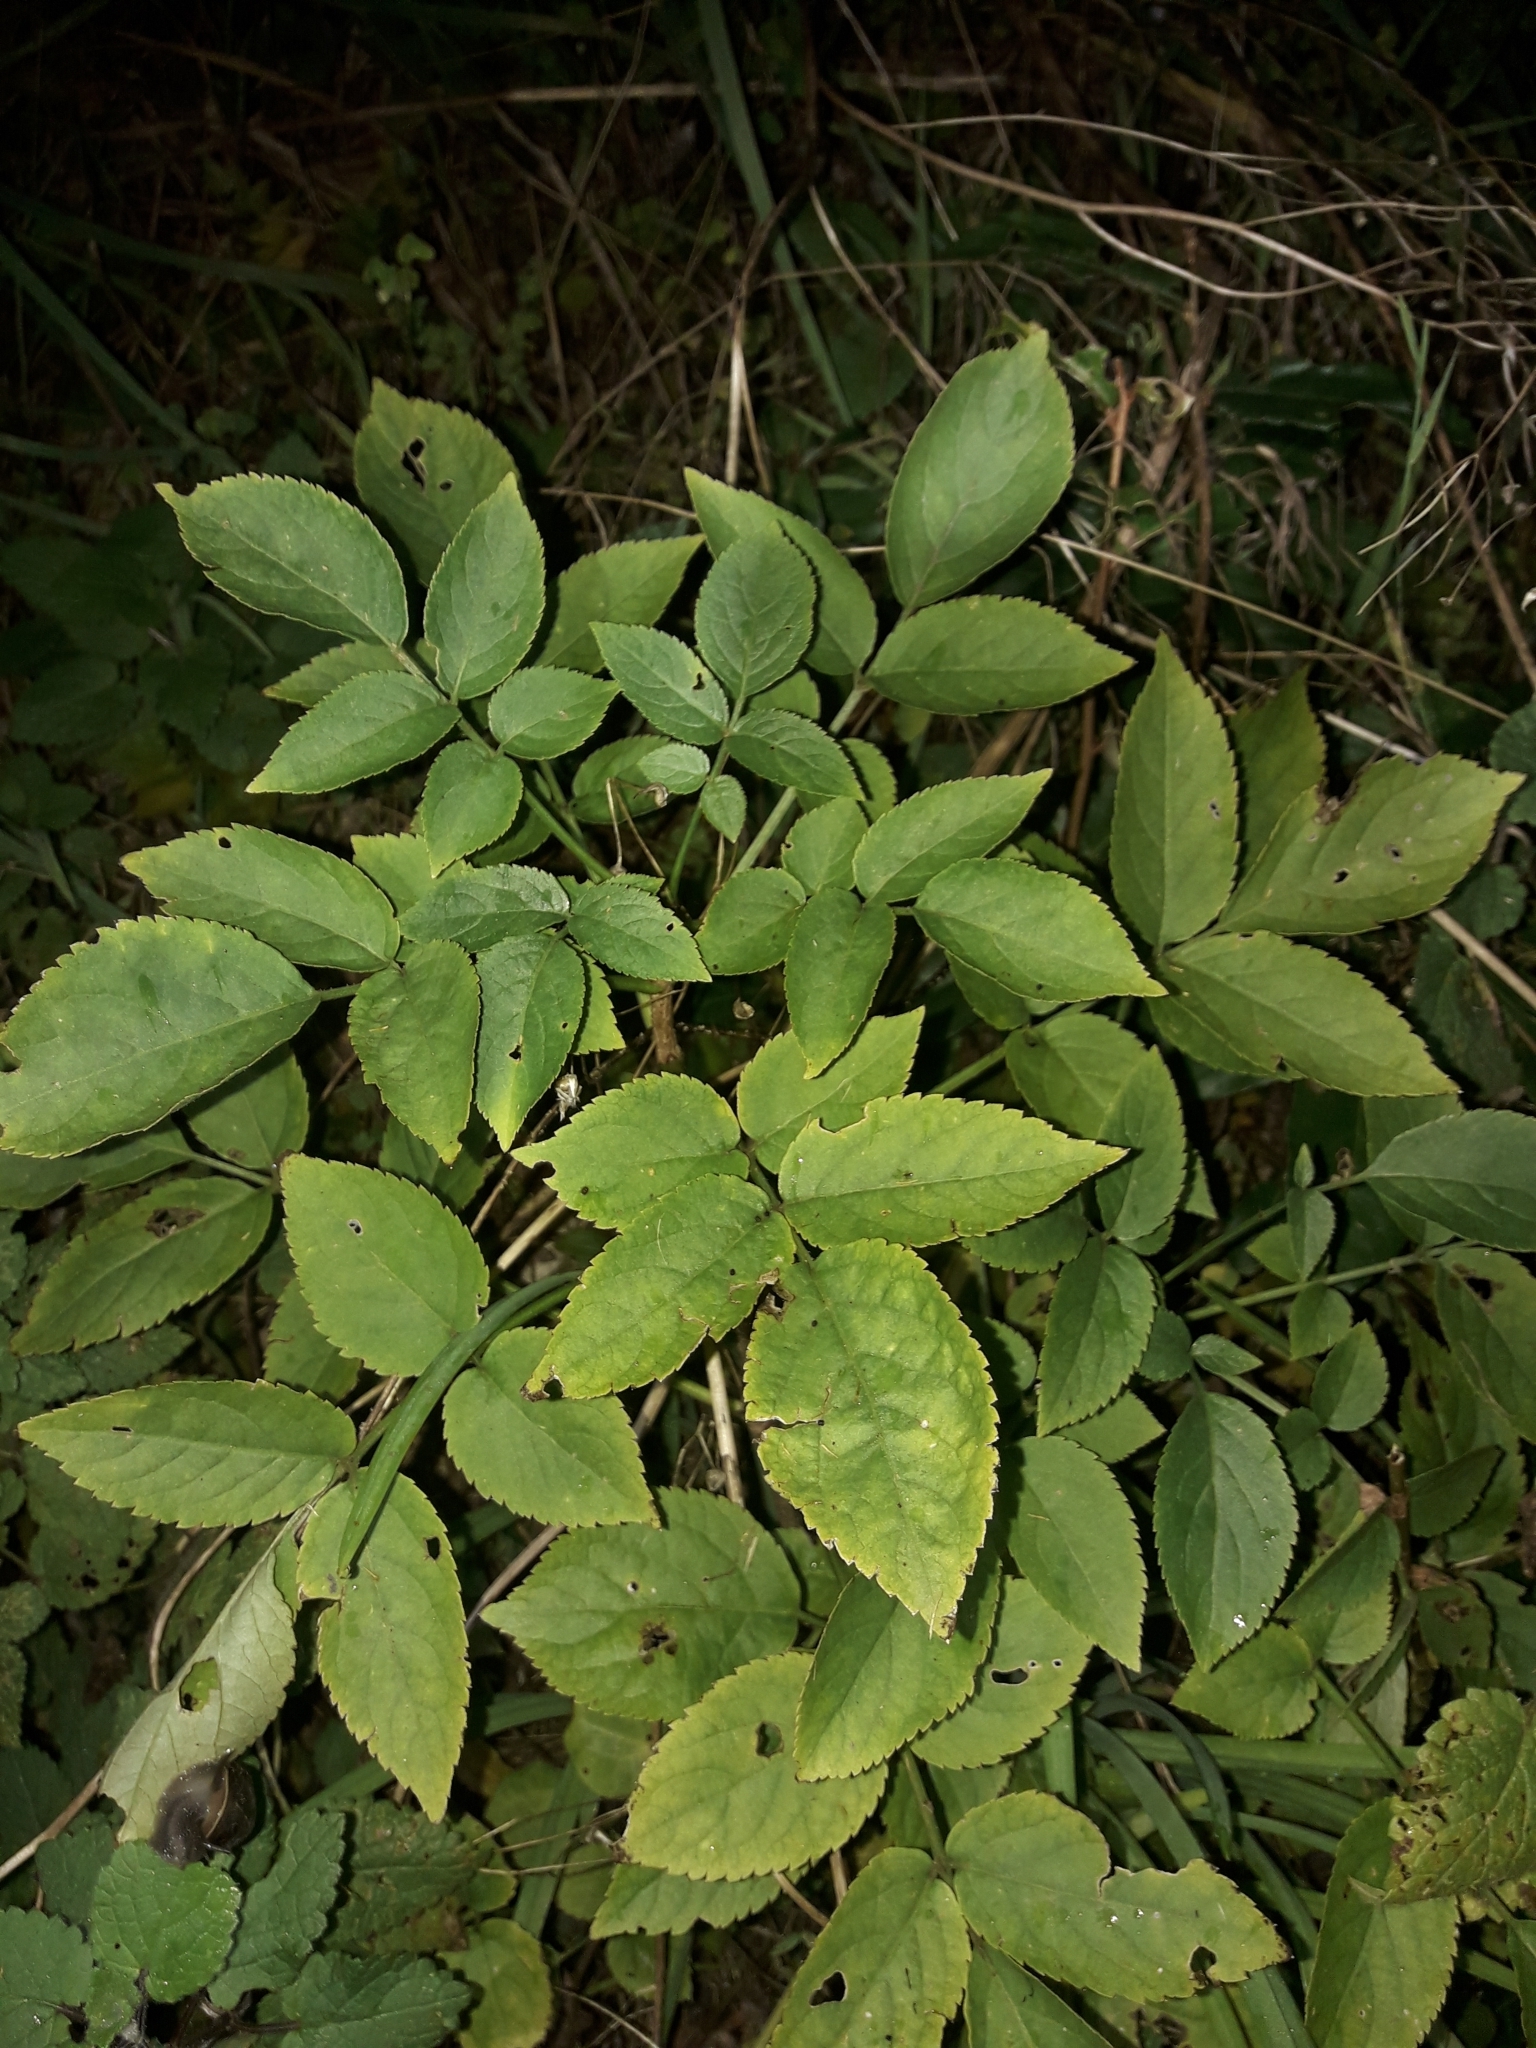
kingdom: Plantae
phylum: Tracheophyta
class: Magnoliopsida
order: Dipsacales
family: Viburnaceae
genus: Sambucus
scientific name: Sambucus nigra
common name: Elder
